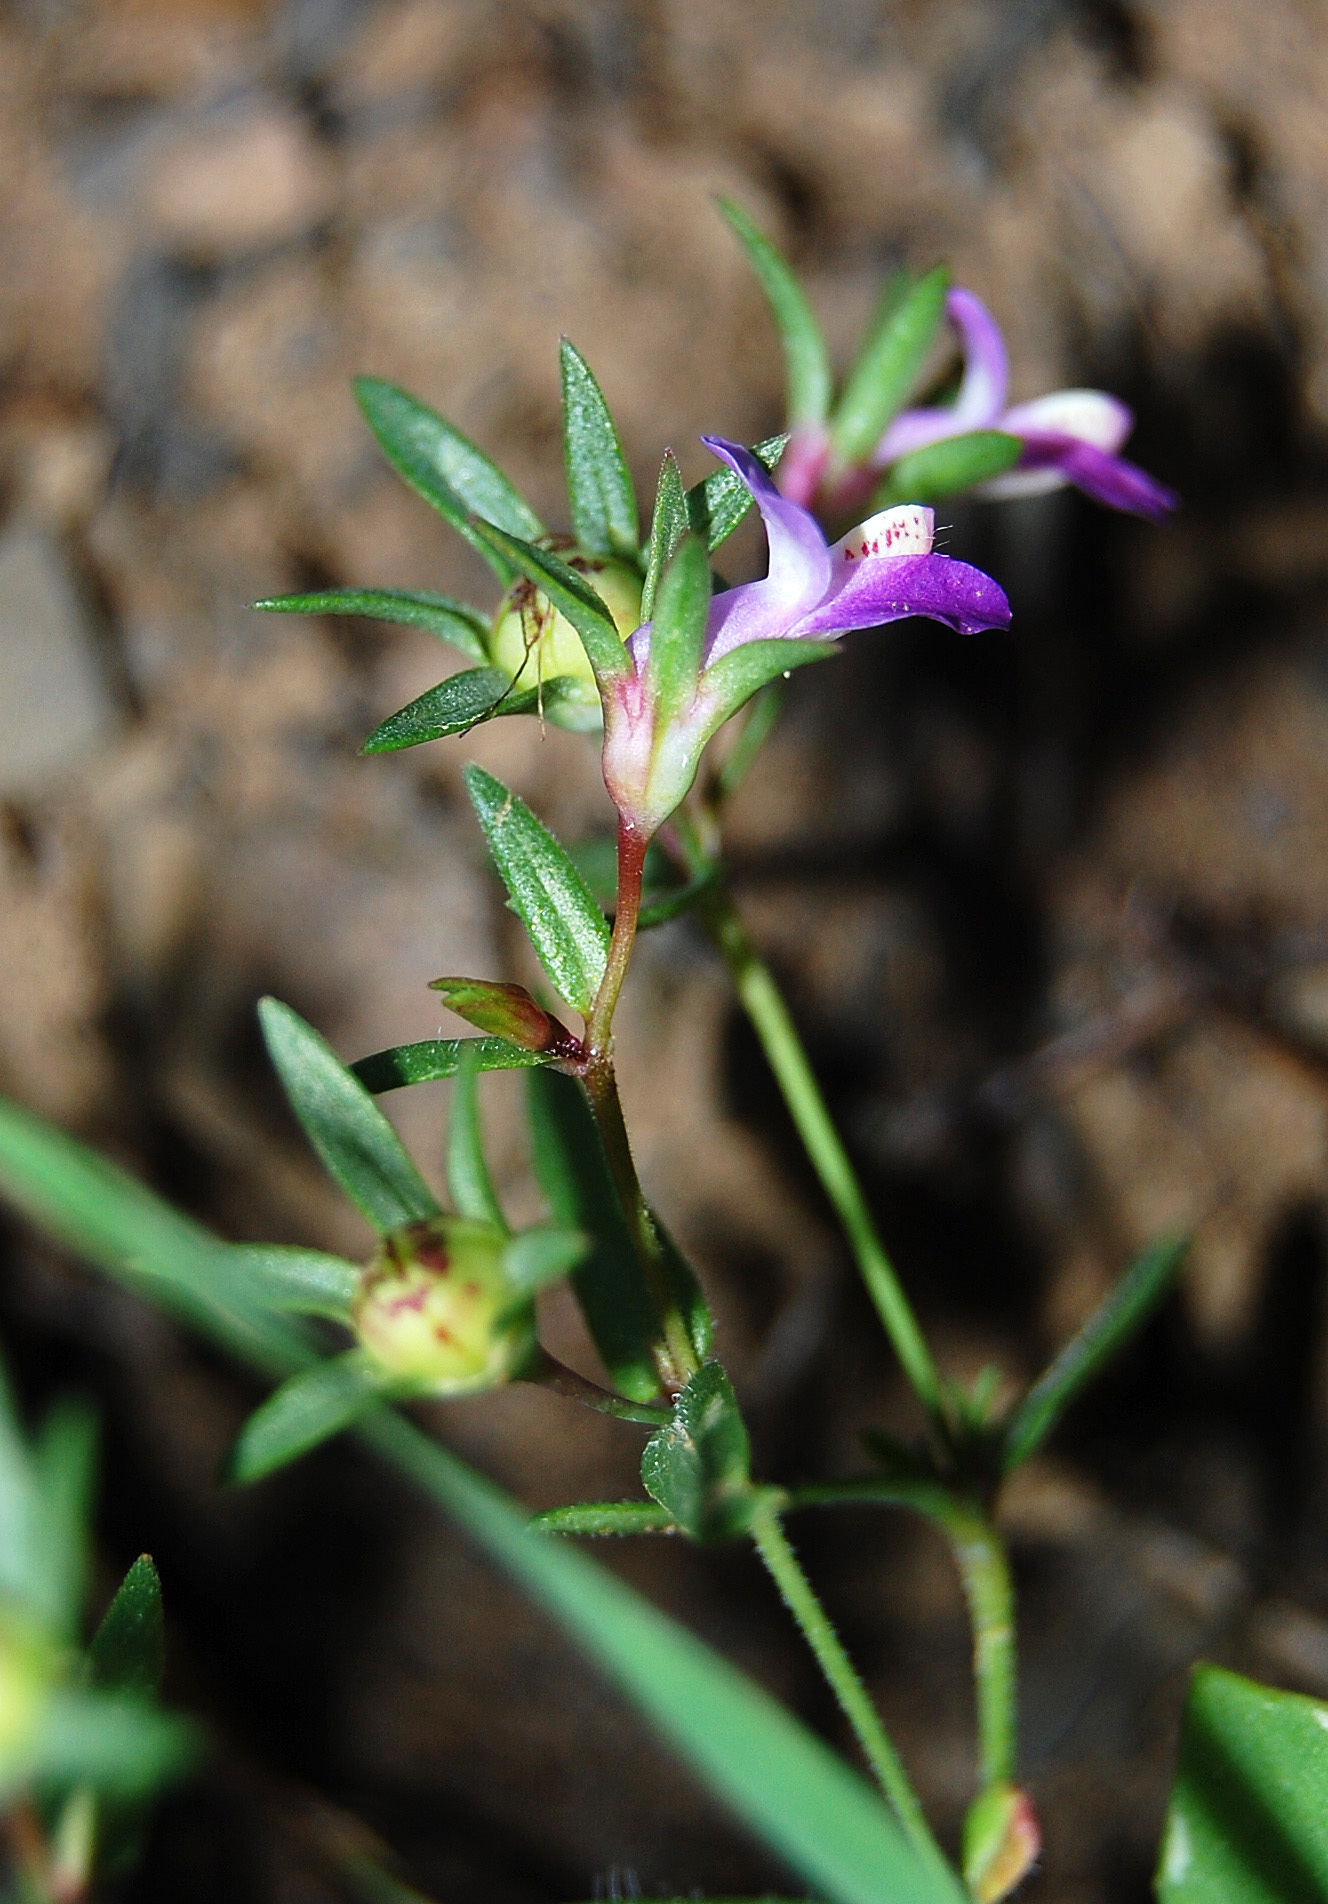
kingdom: Plantae
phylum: Tracheophyta
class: Magnoliopsida
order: Lamiales
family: Plantaginaceae
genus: Collinsia
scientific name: Collinsia sparsiflora
